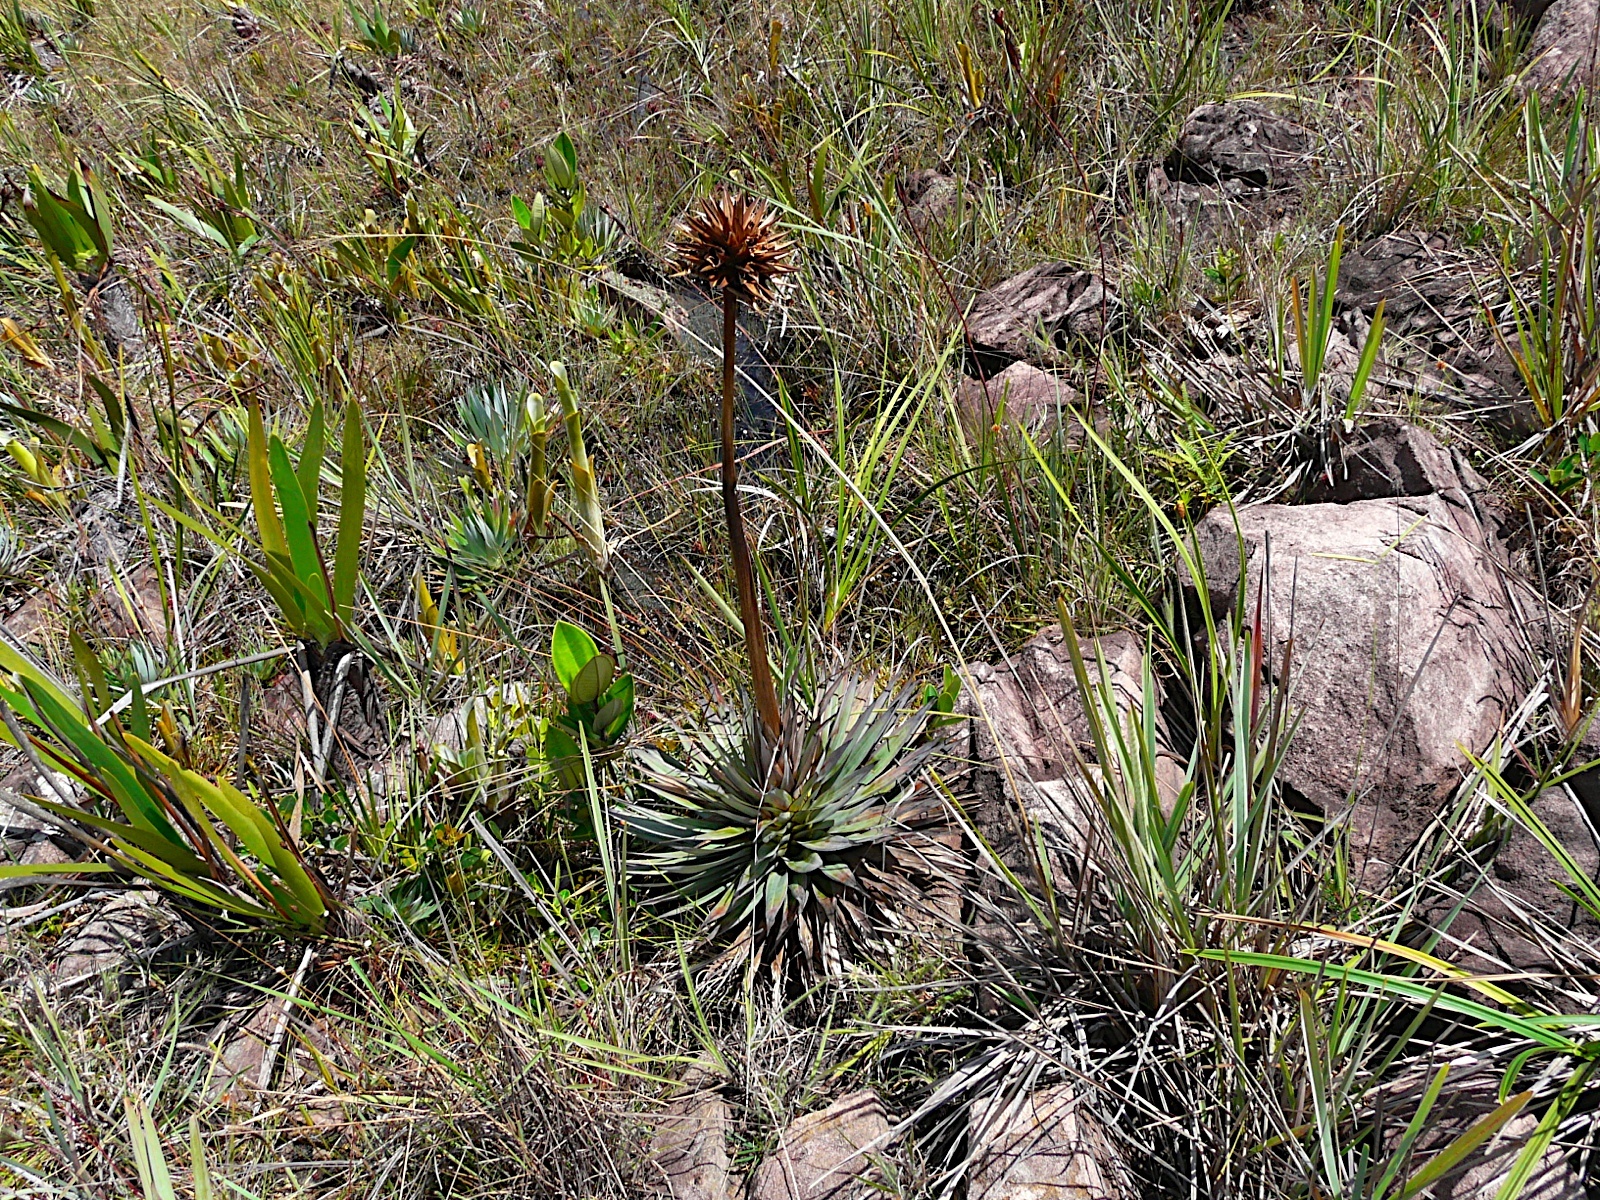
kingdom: Plantae
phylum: Tracheophyta
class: Liliopsida
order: Poales
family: Xyridaceae
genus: Orectanthe
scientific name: Orectanthe sceptrum
